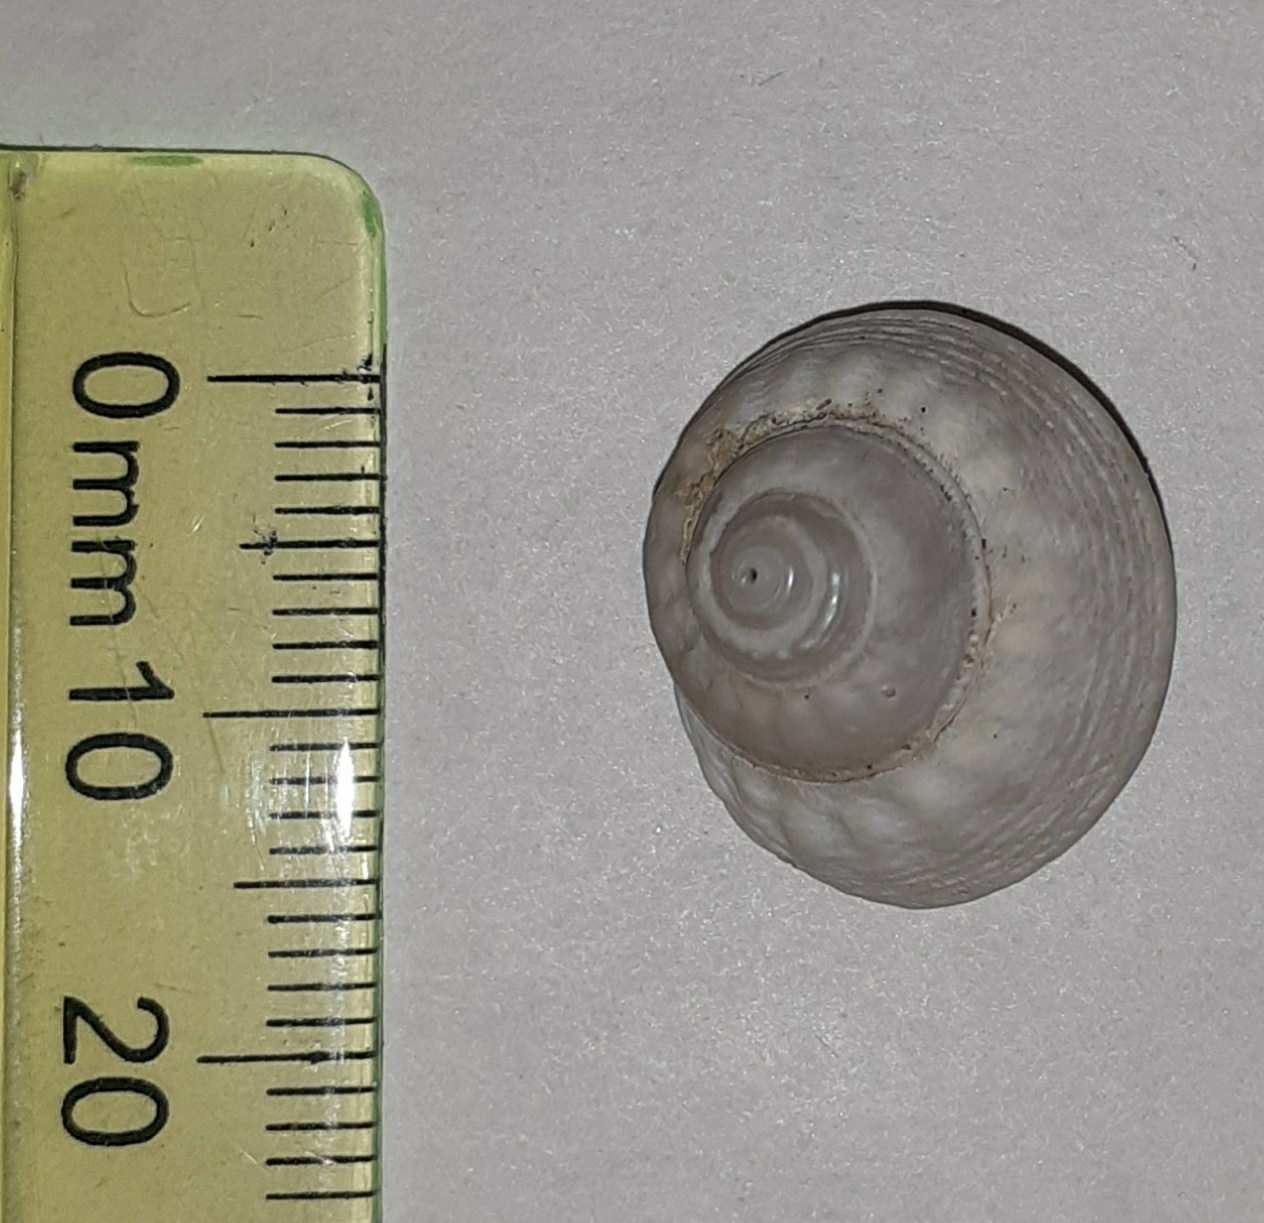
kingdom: Animalia
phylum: Mollusca
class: Gastropoda
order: Trochida
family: Trochidae
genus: Gibbula
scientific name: Gibbula magus
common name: Turban top shell
